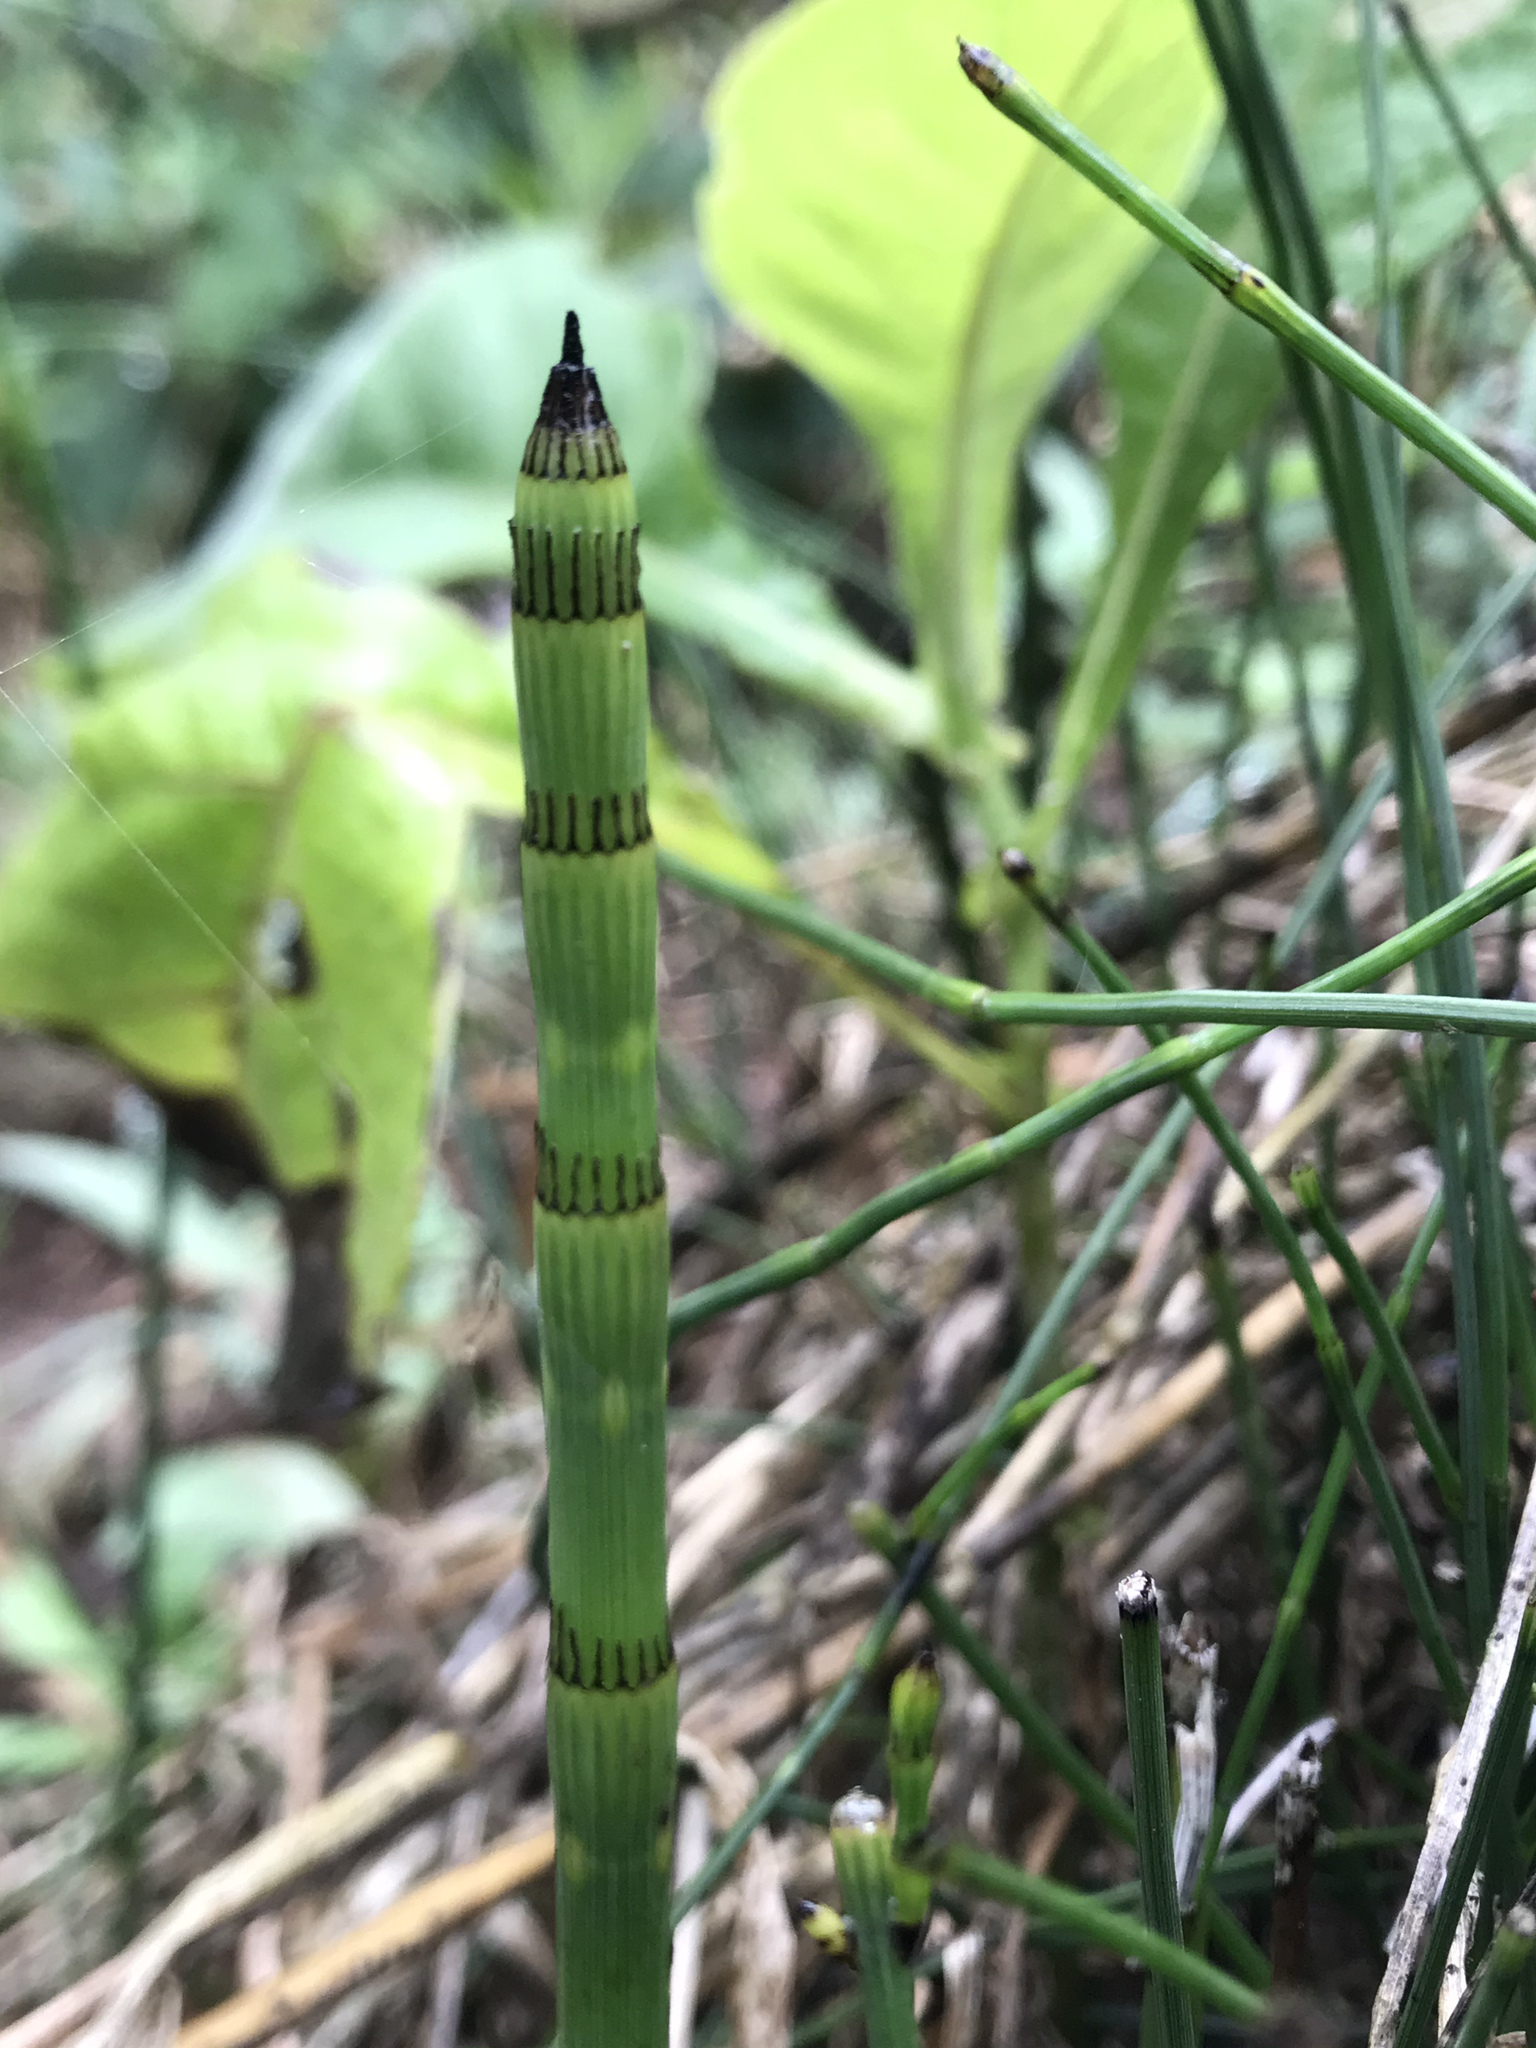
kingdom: Plantae
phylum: Tracheophyta
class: Polypodiopsida
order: Equisetales
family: Equisetaceae
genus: Equisetum
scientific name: Equisetum bogotense
